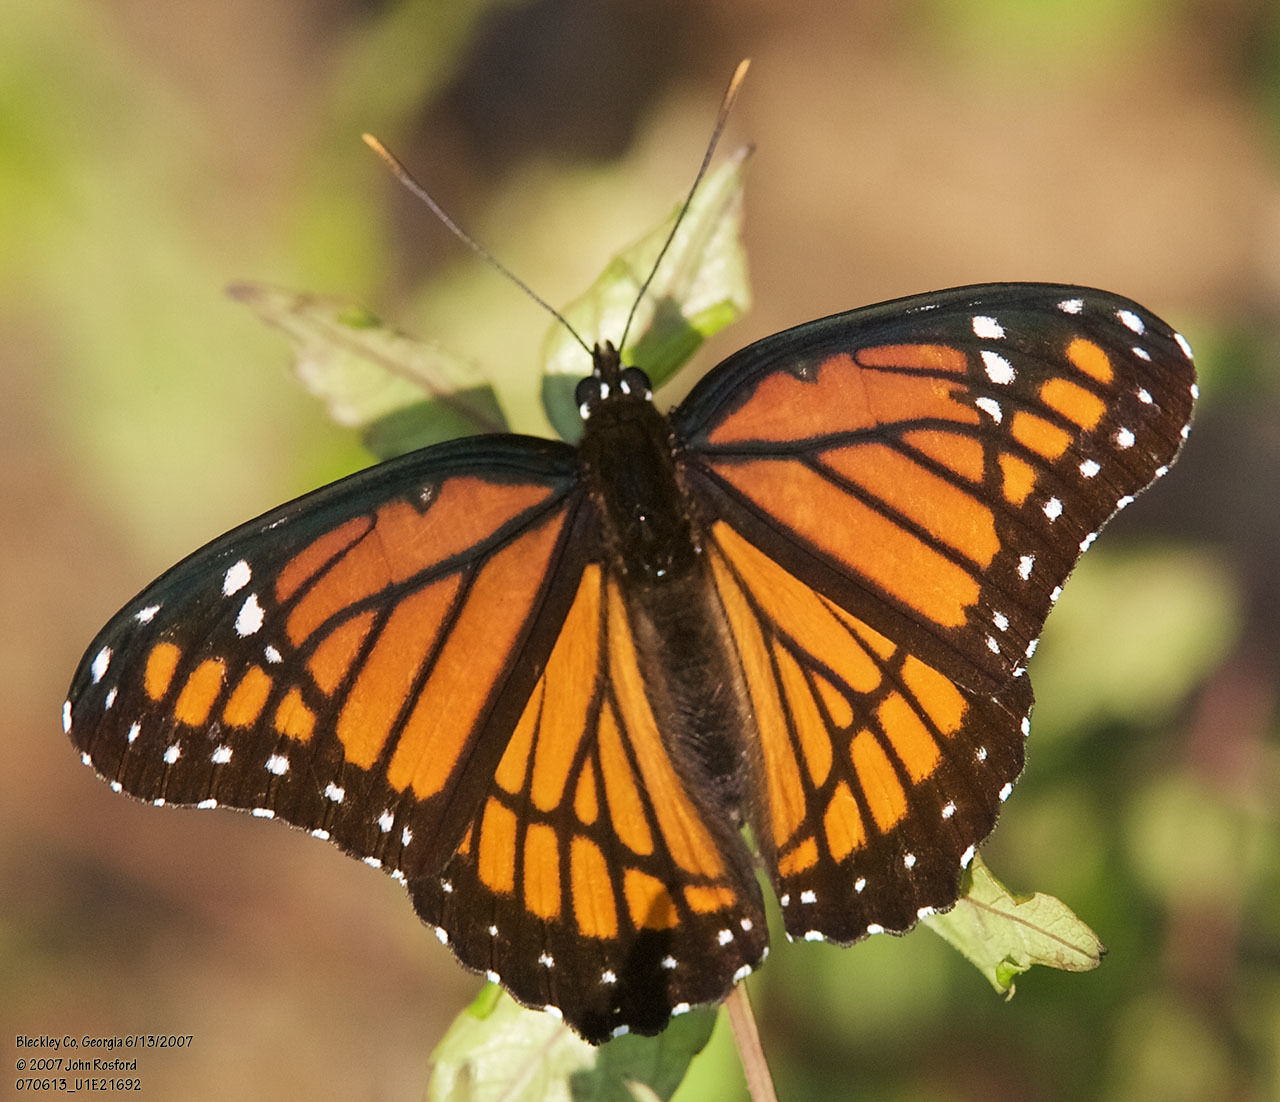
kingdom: Animalia
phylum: Arthropoda
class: Insecta
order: Lepidoptera
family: Nymphalidae
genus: Limenitis
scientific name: Limenitis archippus
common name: Viceroy
